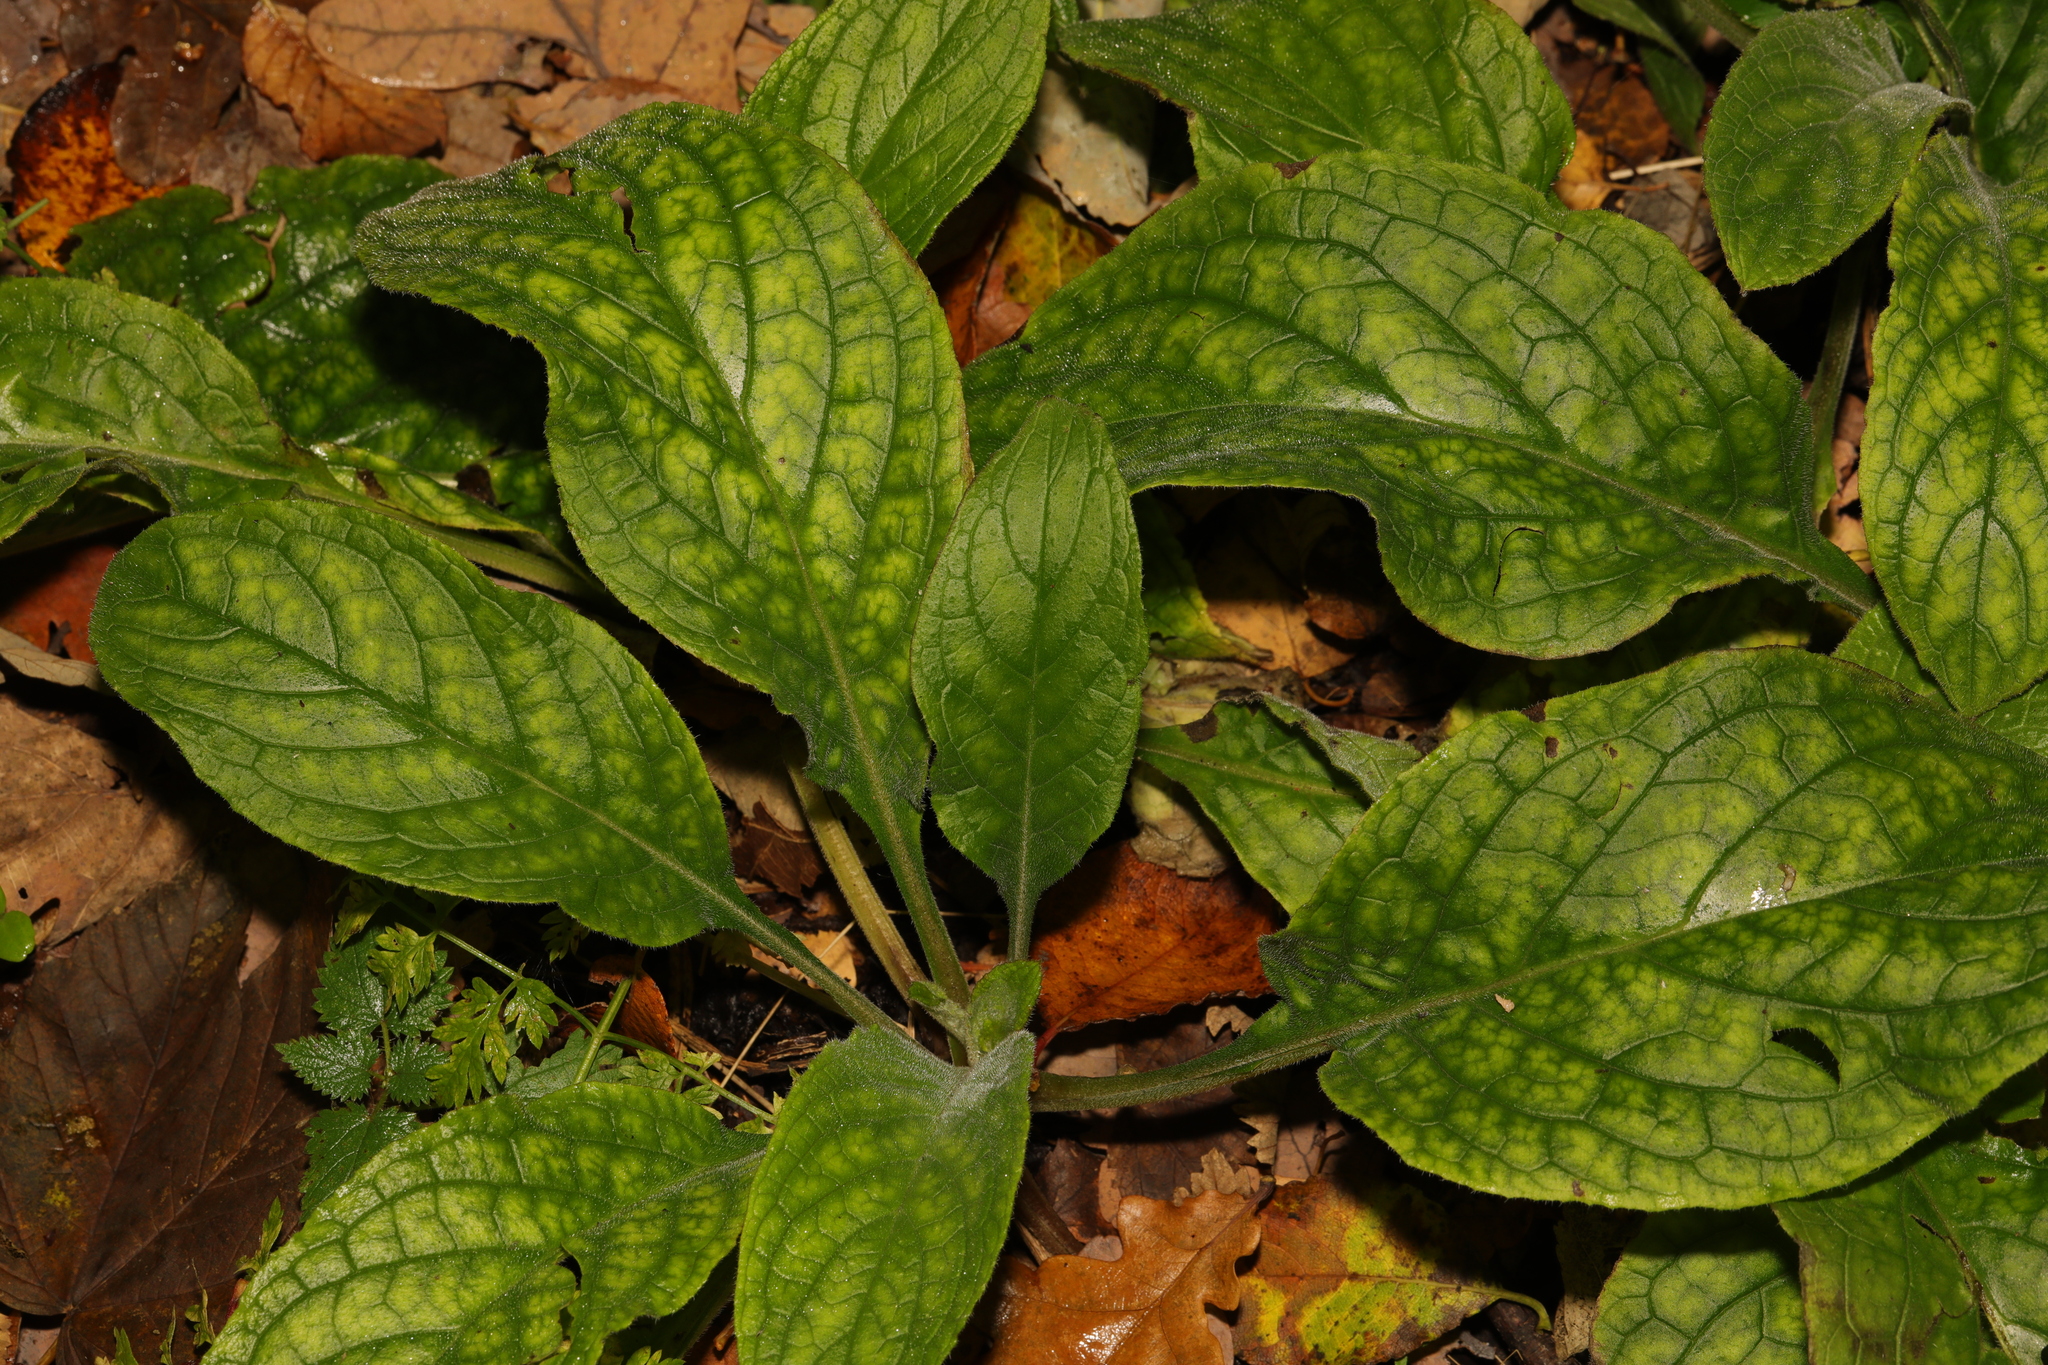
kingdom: Plantae
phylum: Tracheophyta
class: Magnoliopsida
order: Lamiales
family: Plantaginaceae
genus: Digitalis
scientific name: Digitalis purpurea
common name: Foxglove
